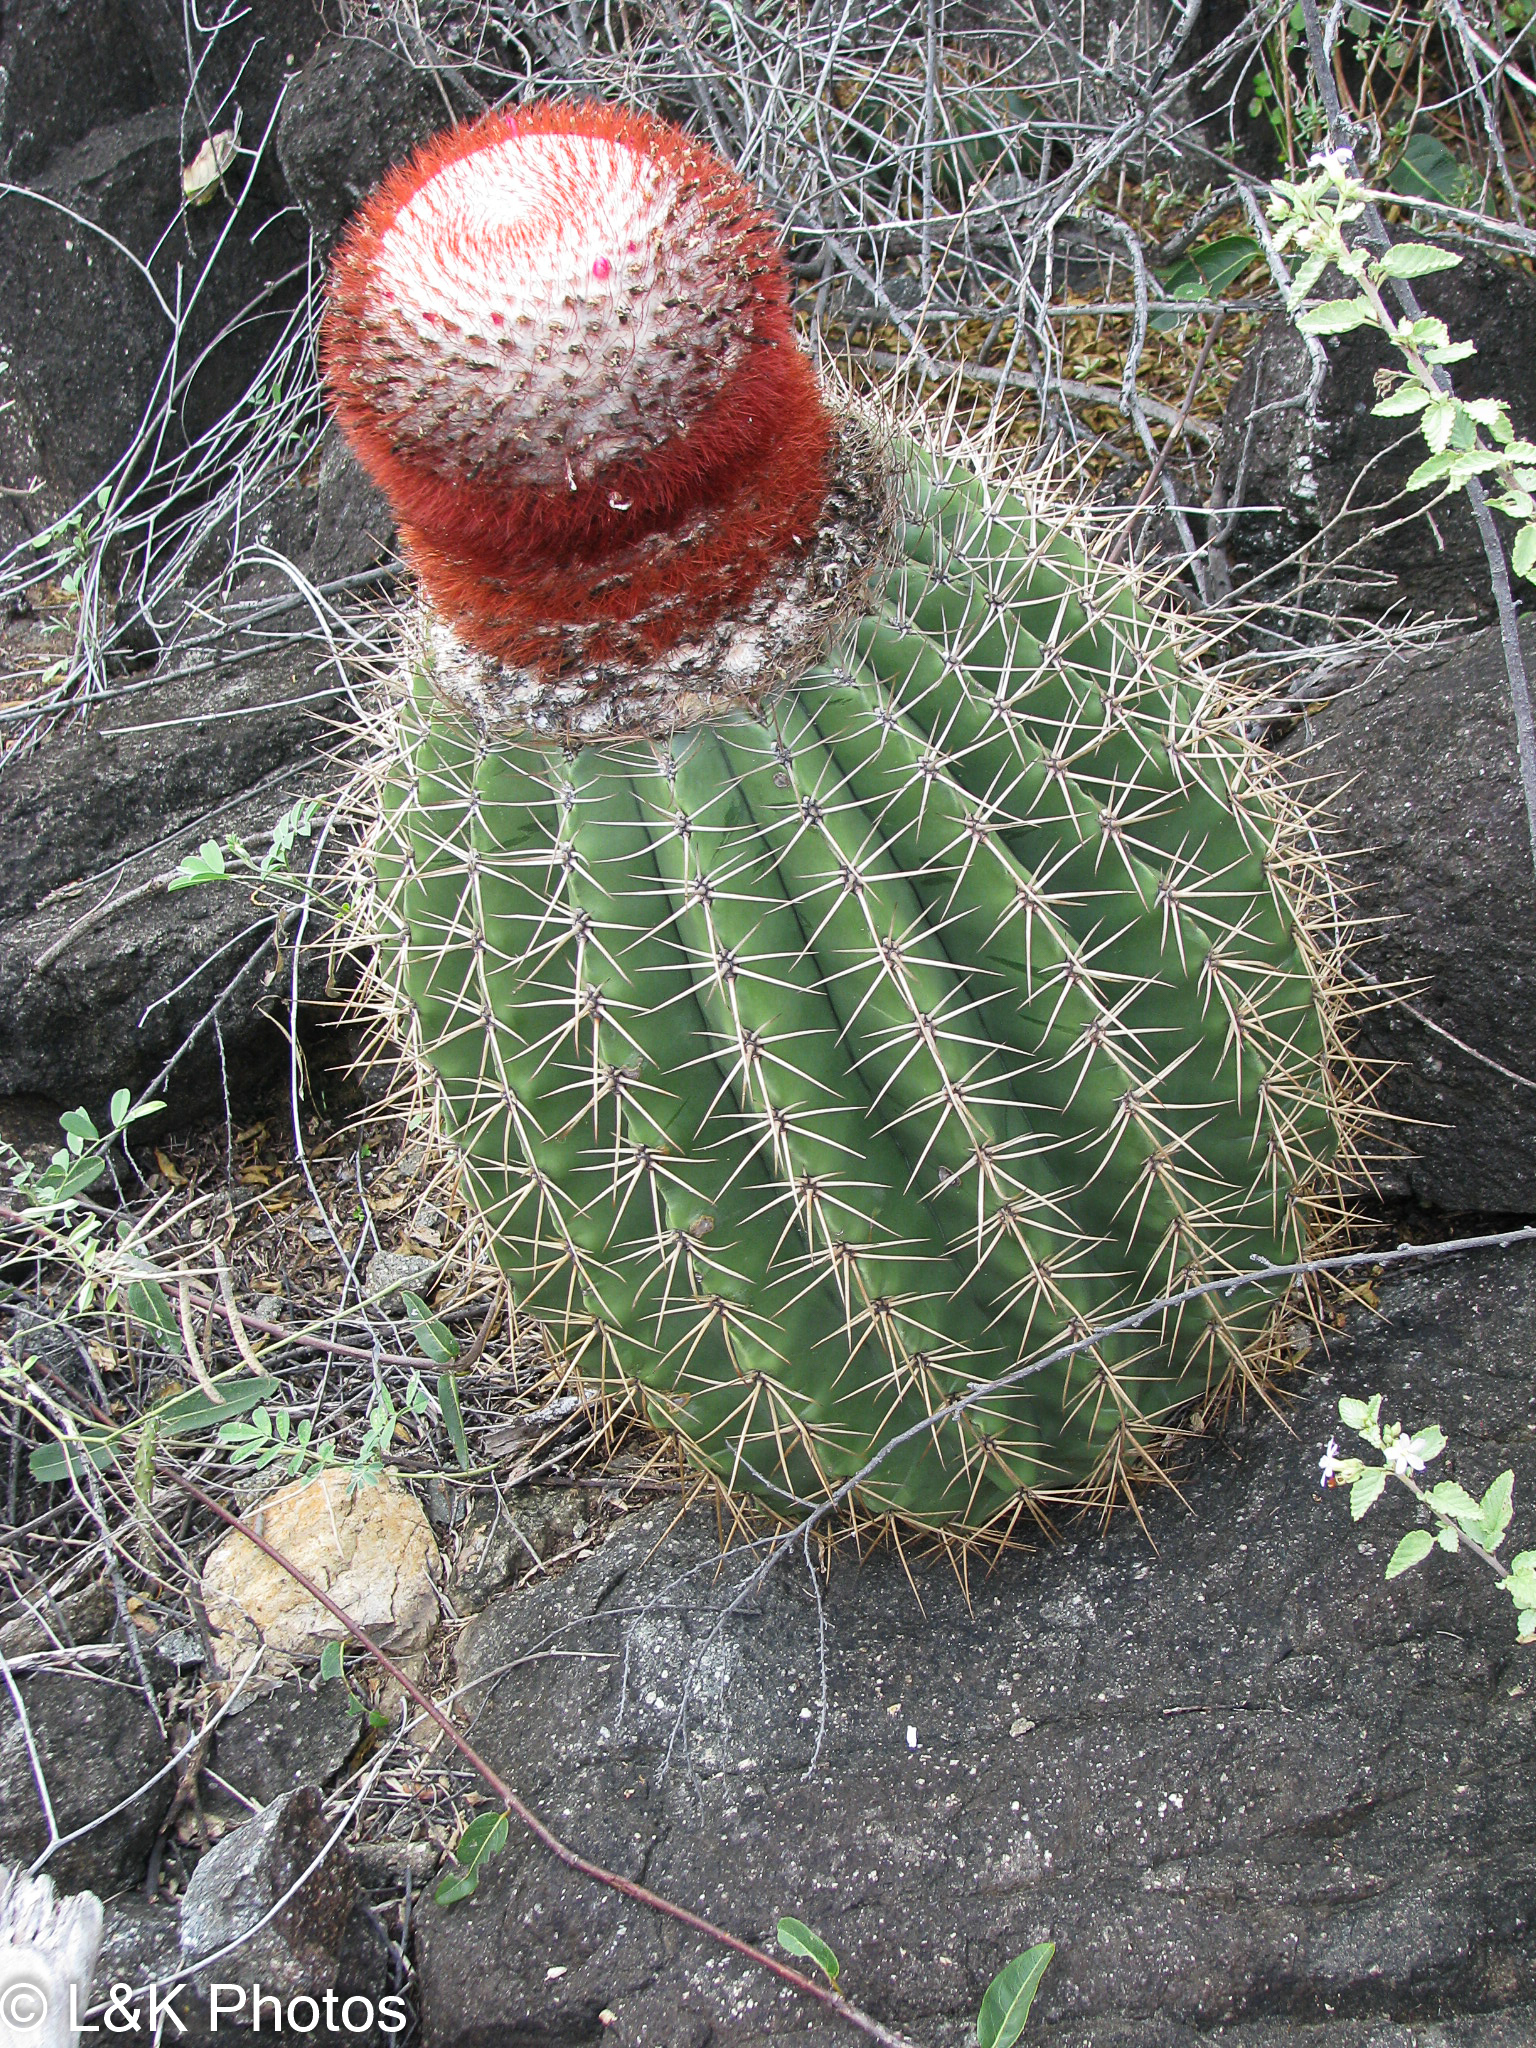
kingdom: Plantae
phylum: Tracheophyta
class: Magnoliopsida
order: Caryophyllales
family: Cactaceae
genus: Melocactus
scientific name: Melocactus intortus
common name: Barrel cactus
